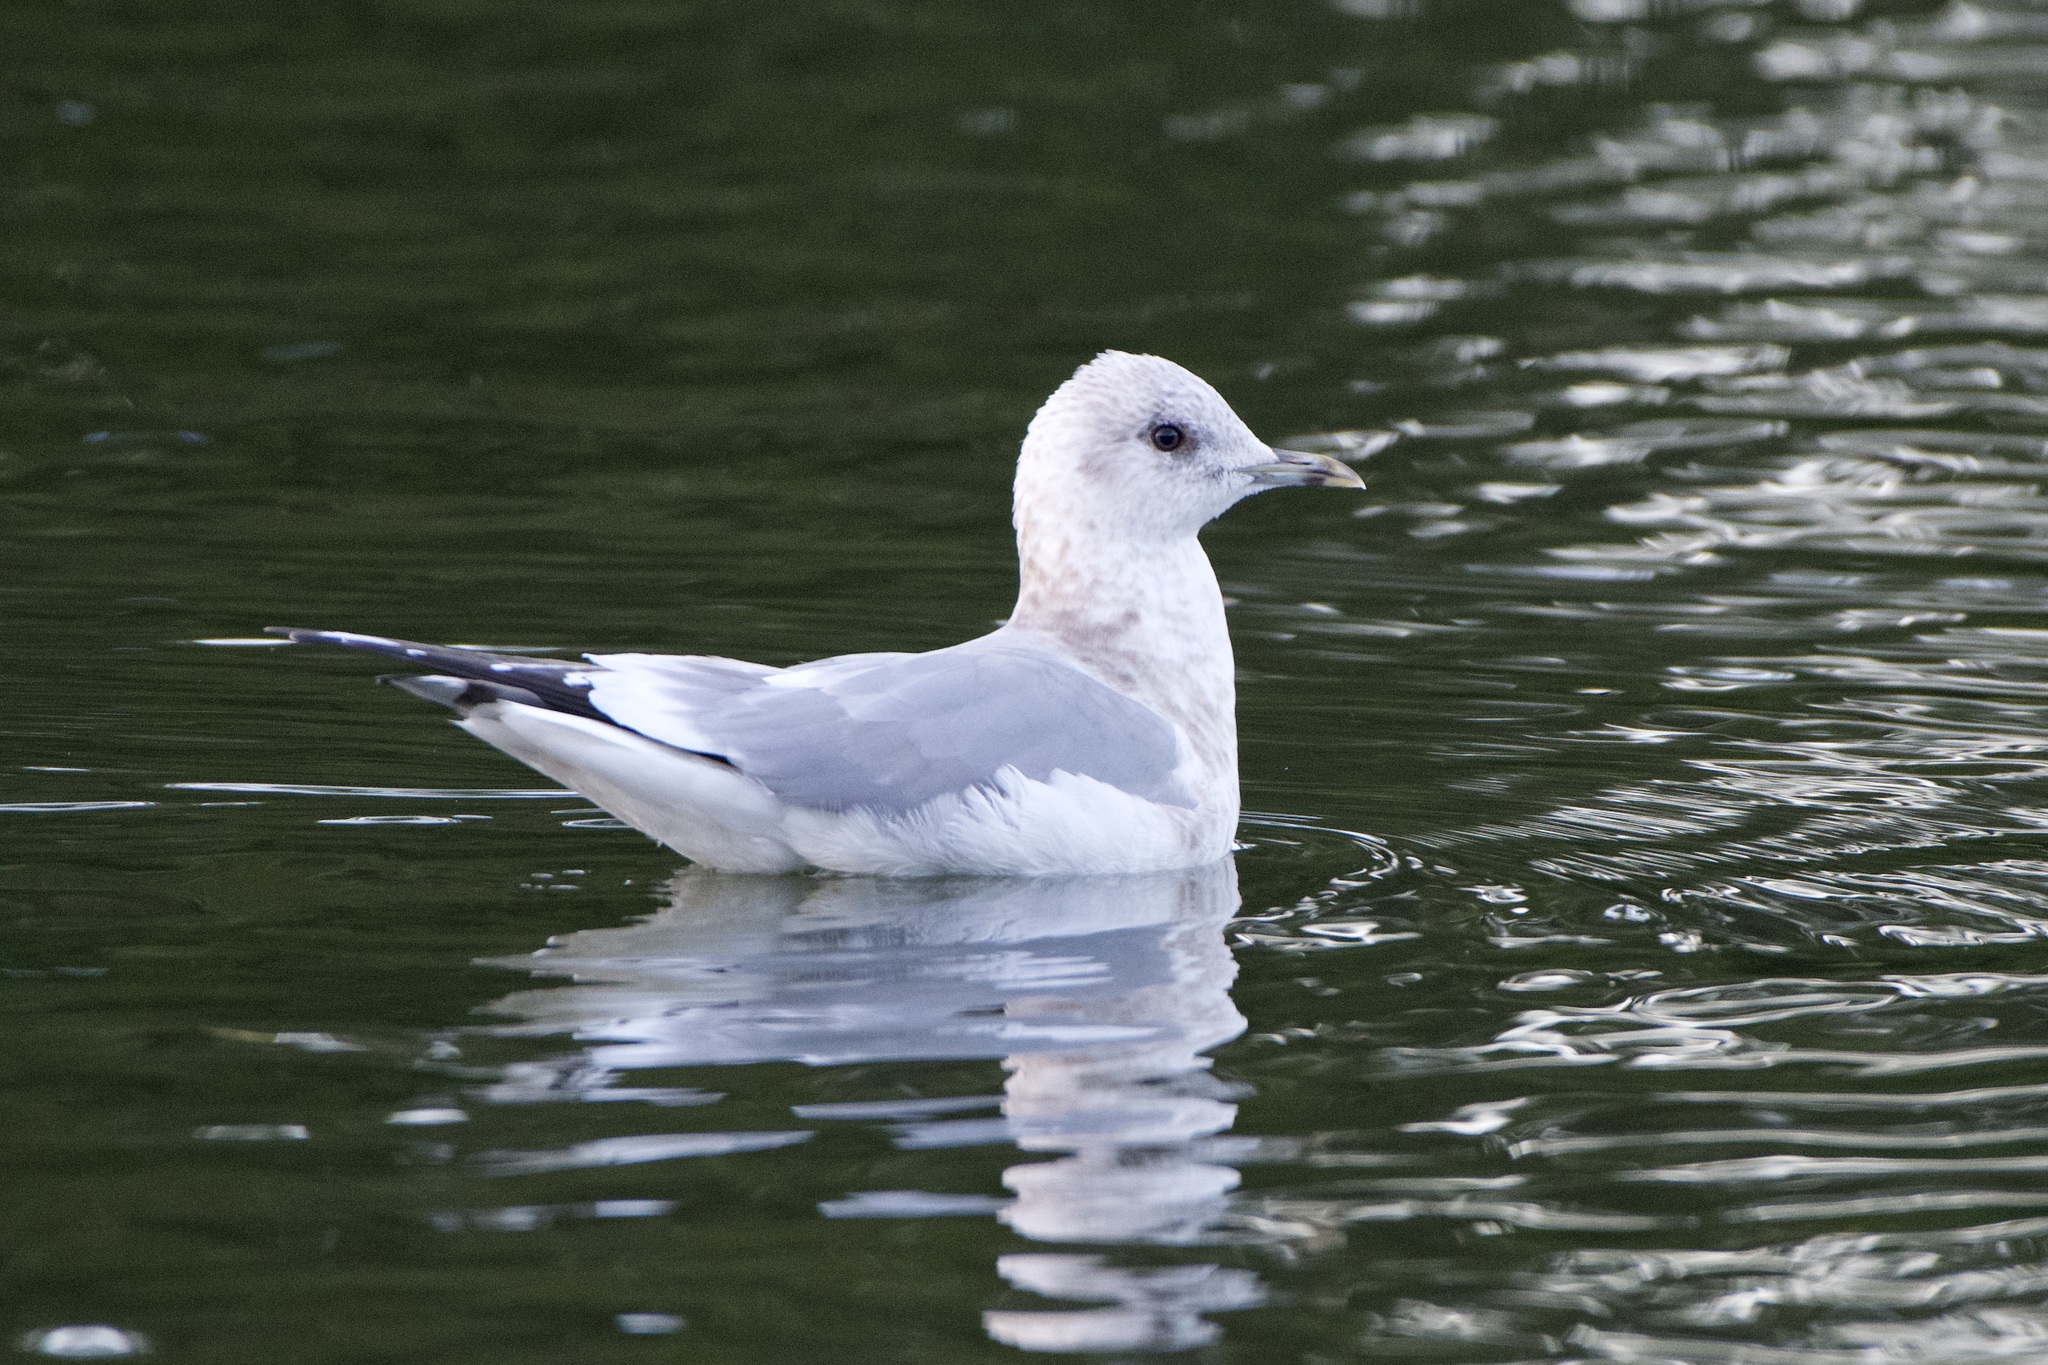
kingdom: Animalia
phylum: Chordata
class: Aves
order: Charadriiformes
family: Laridae
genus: Larus
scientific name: Larus brachyrhynchus
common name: Short-billed gull
